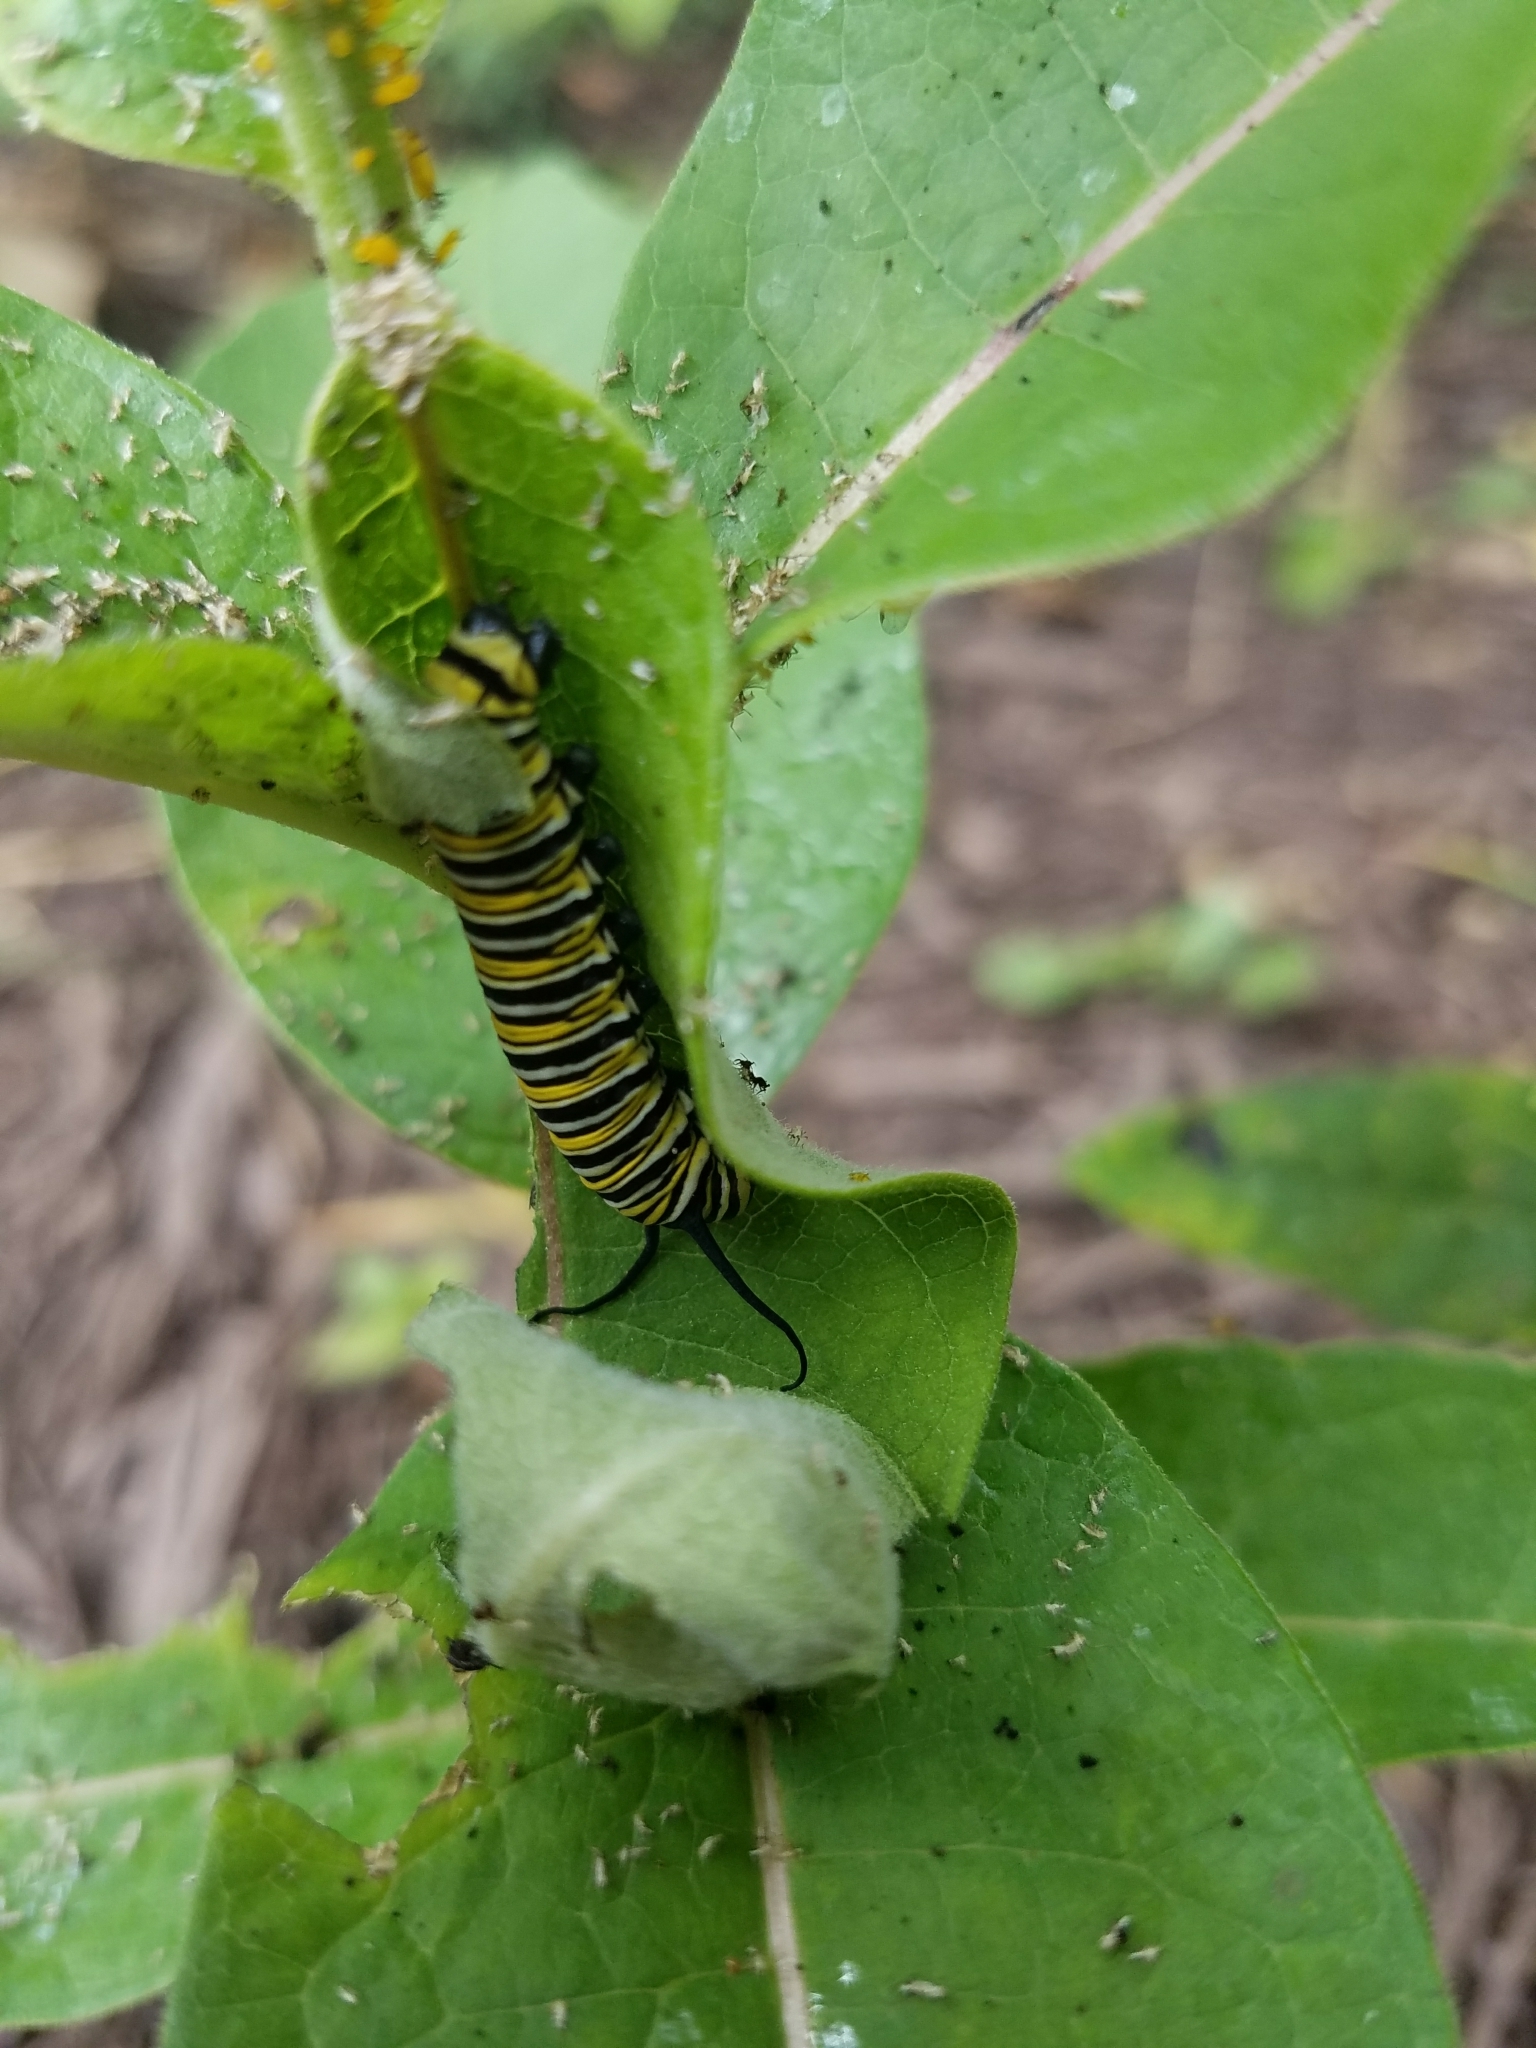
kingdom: Animalia
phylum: Arthropoda
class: Insecta
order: Lepidoptera
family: Nymphalidae
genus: Danaus
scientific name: Danaus plexippus
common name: Monarch
